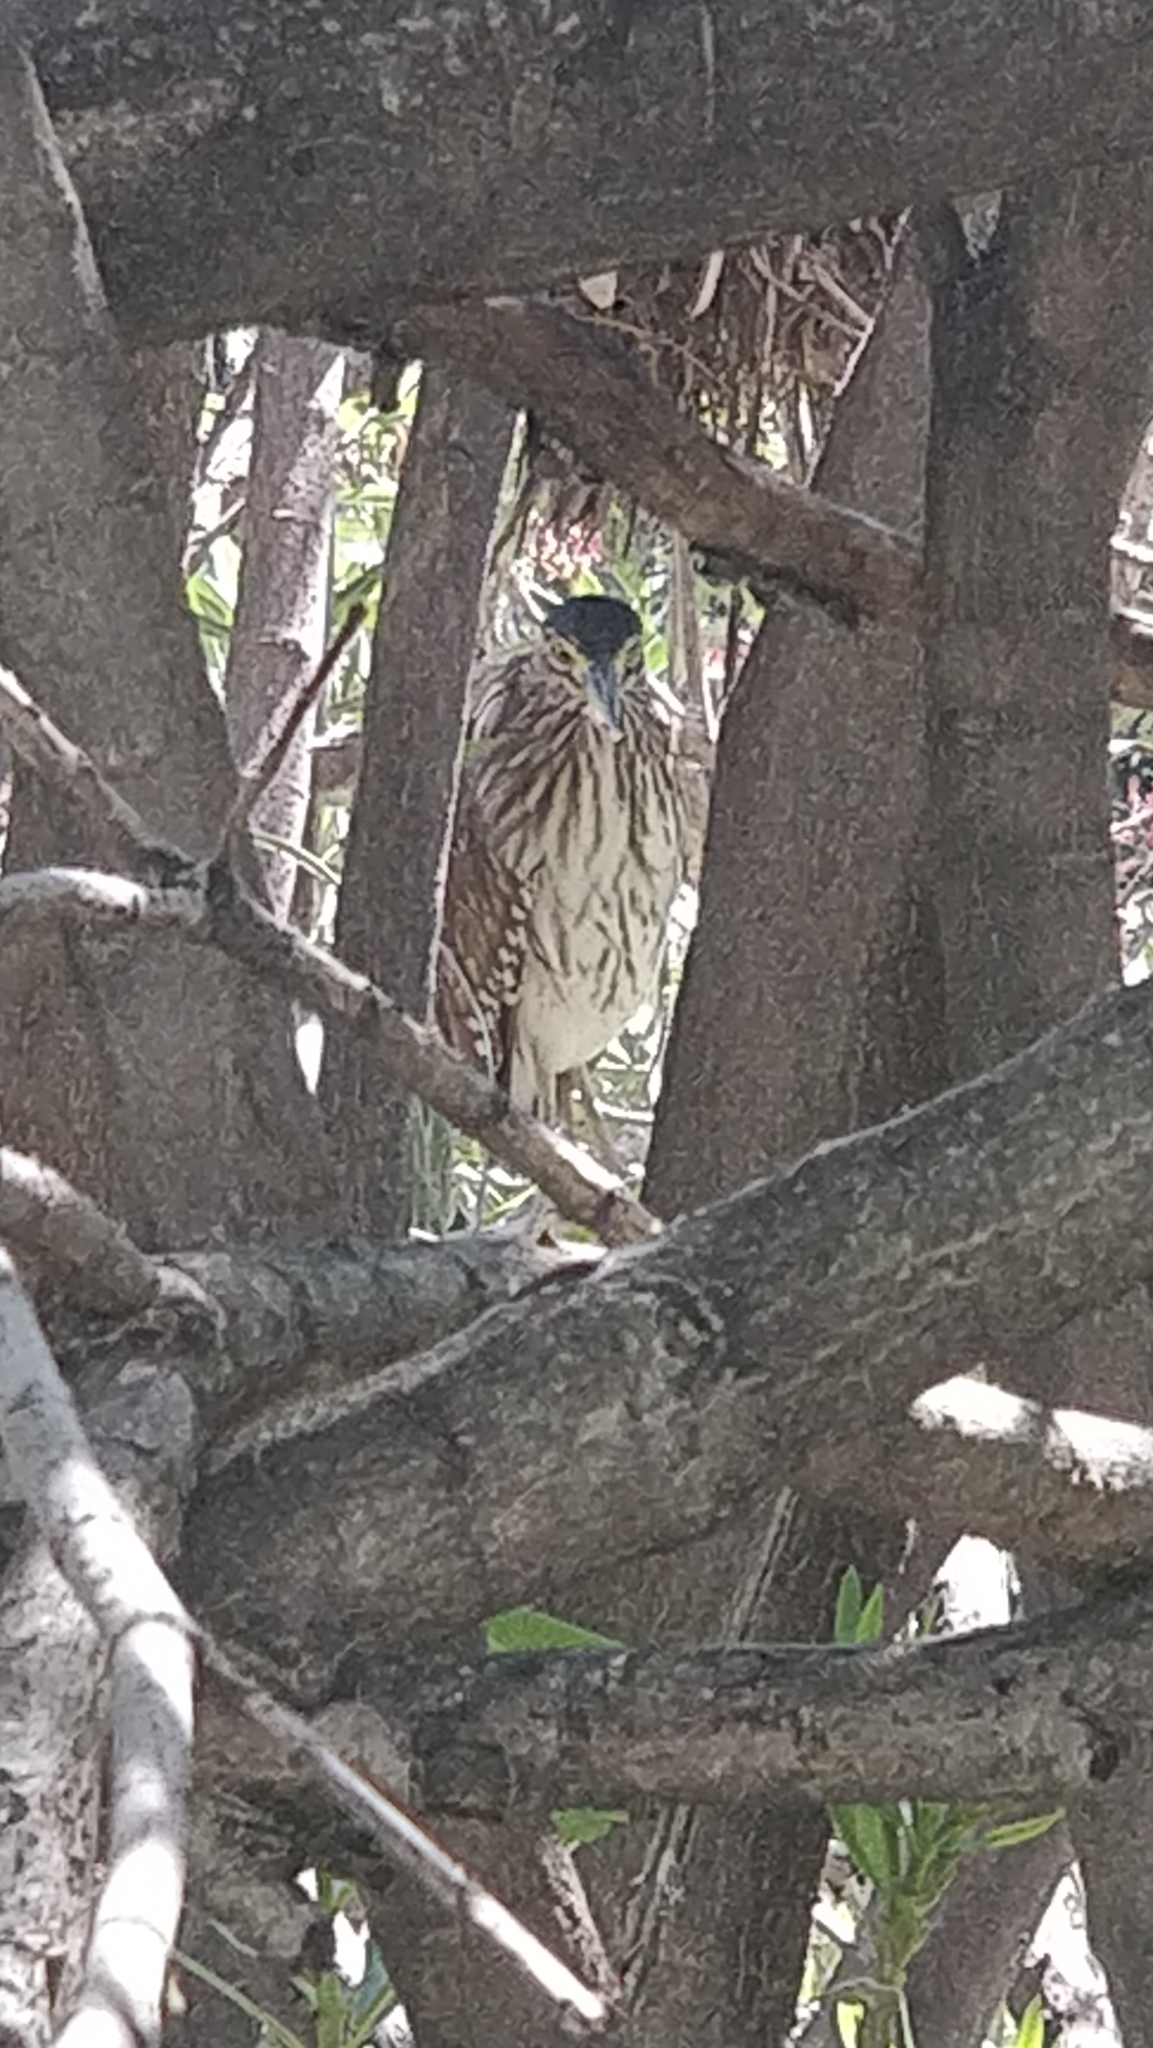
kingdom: Animalia
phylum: Chordata
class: Aves
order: Pelecaniformes
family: Ardeidae
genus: Nycticorax
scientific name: Nycticorax caledonicus
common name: Rufous night-heron
